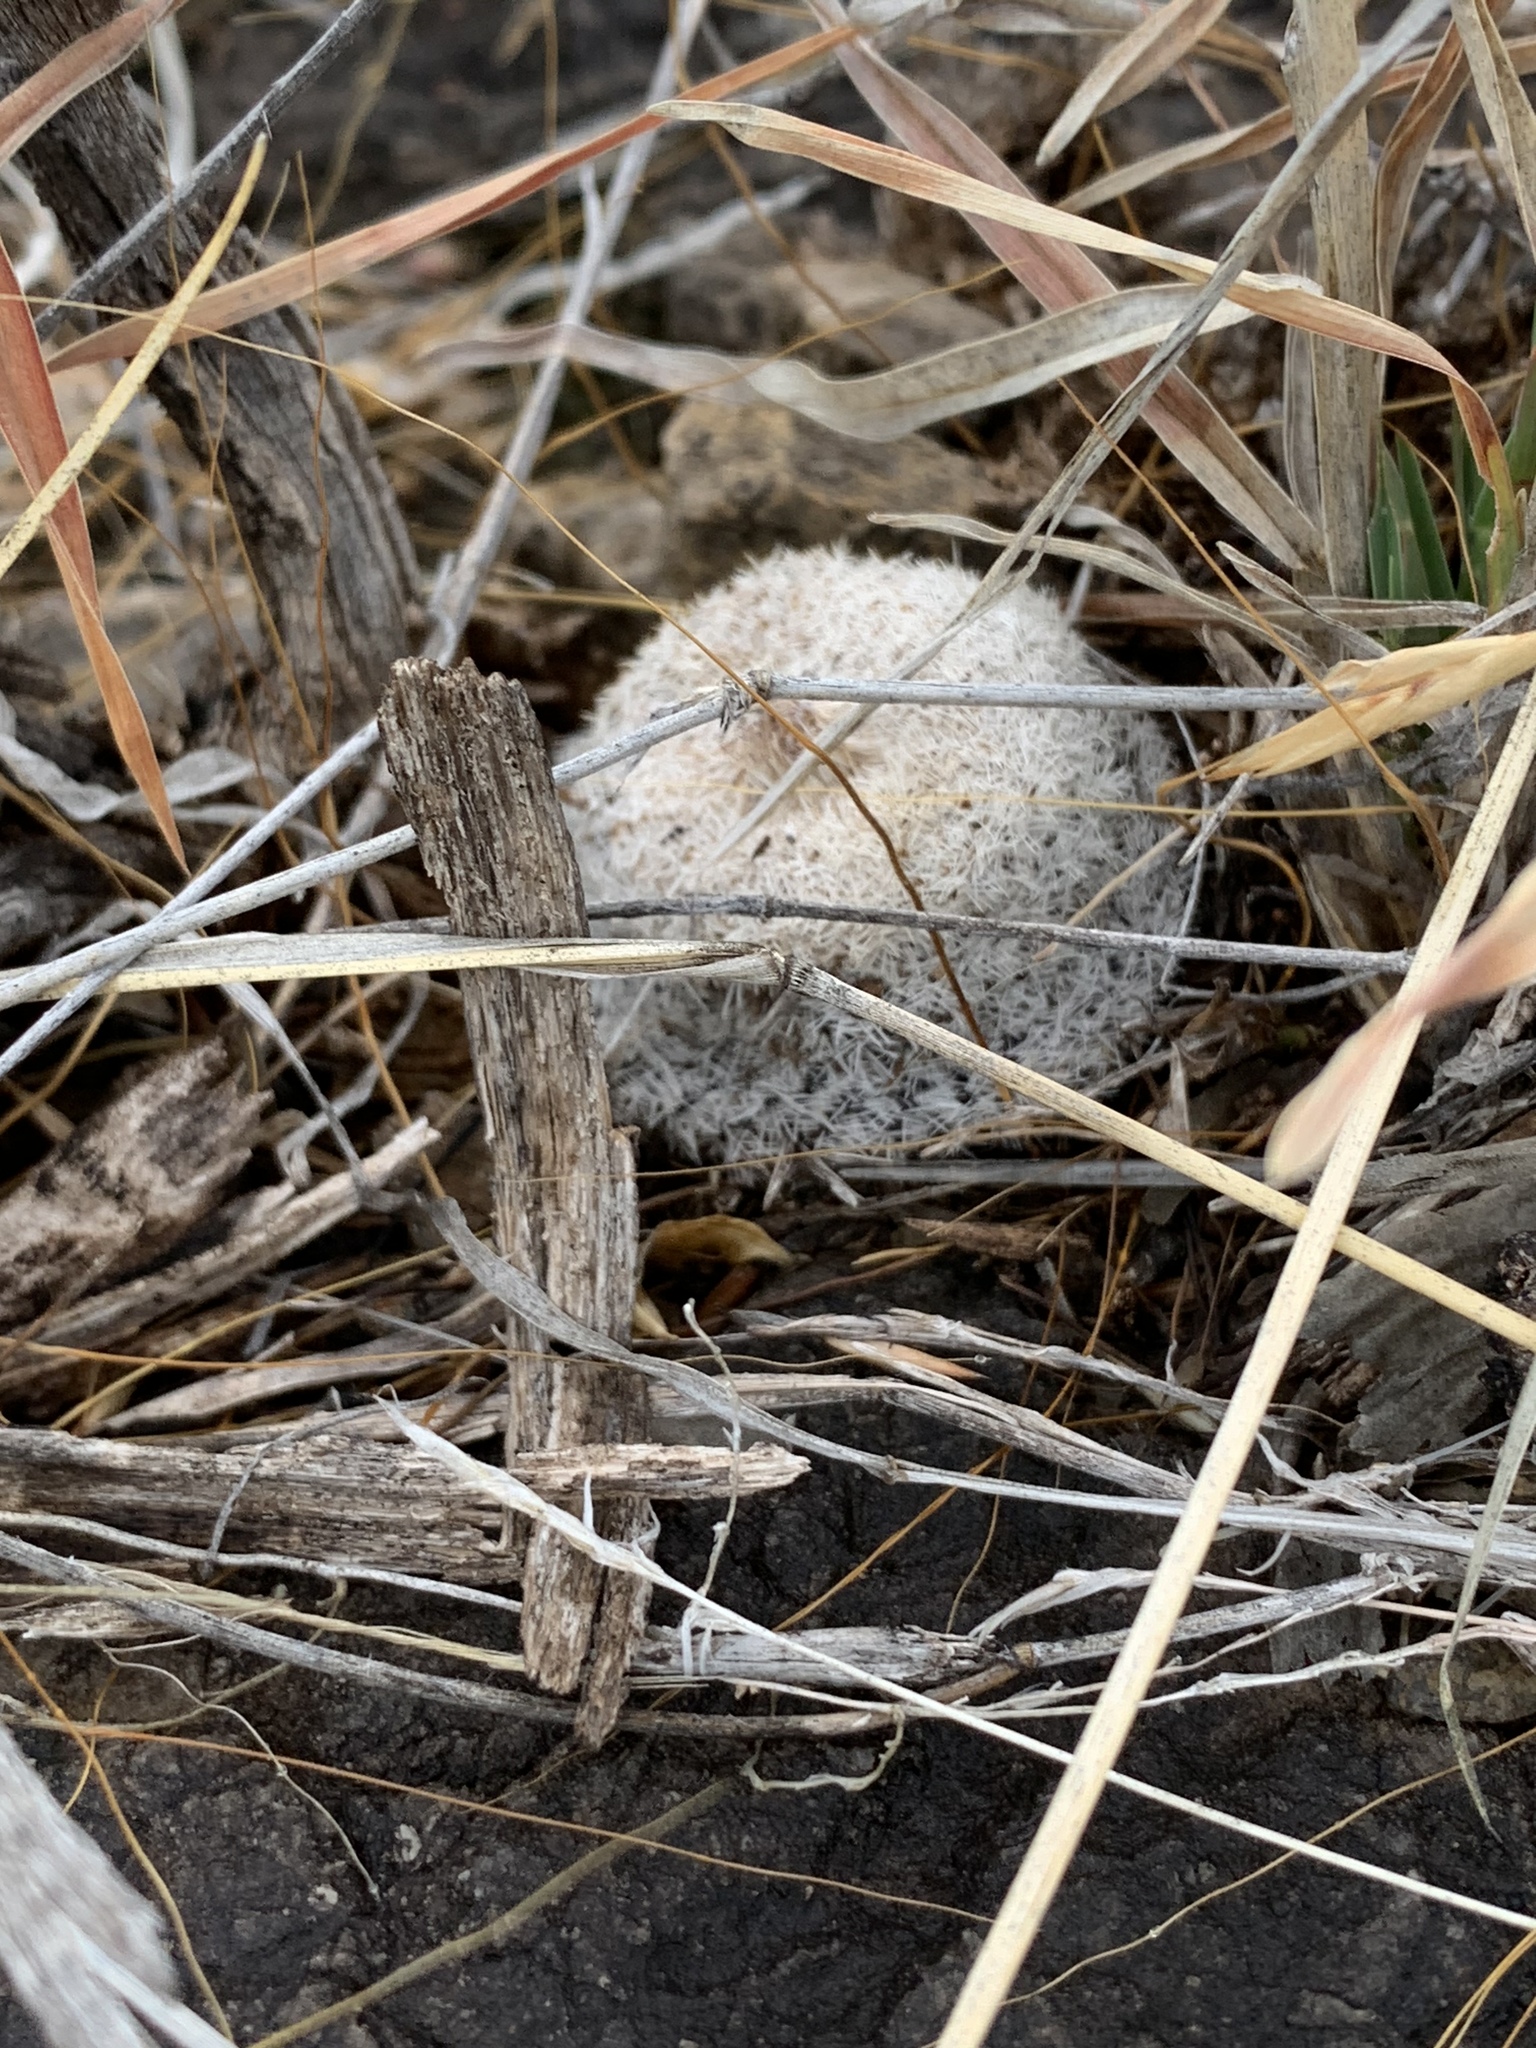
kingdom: Plantae
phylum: Tracheophyta
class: Magnoliopsida
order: Caryophyllales
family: Cactaceae
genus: Epithelantha
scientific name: Epithelantha micromeris
